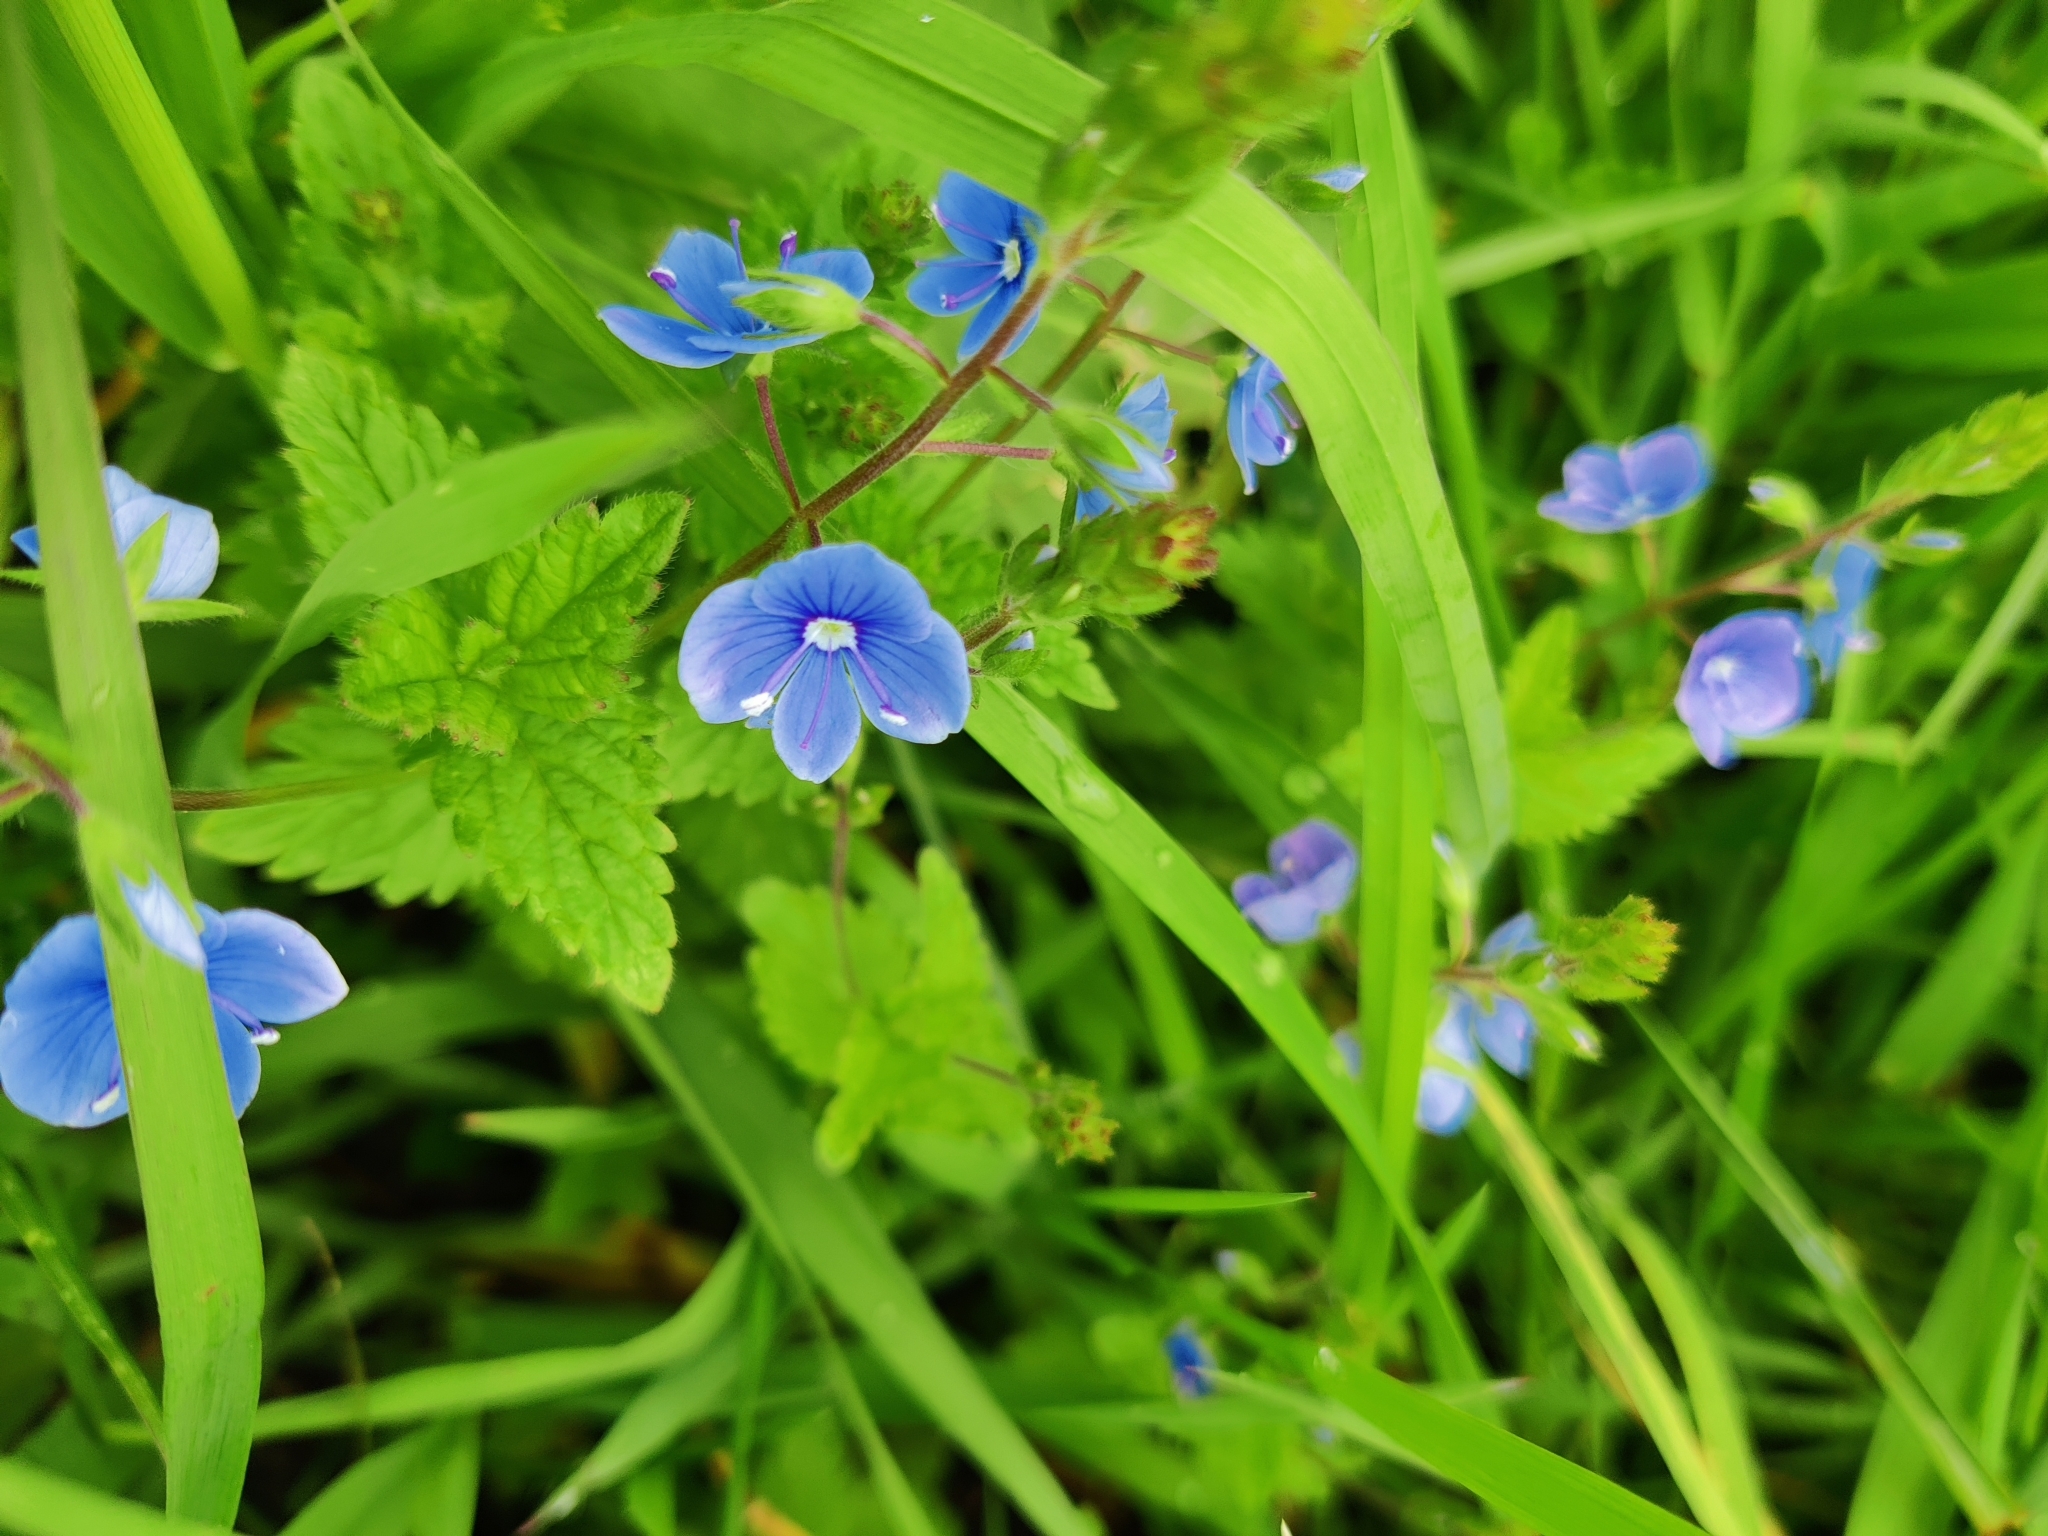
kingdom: Plantae
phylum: Tracheophyta
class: Magnoliopsida
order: Lamiales
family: Plantaginaceae
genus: Veronica
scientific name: Veronica chamaedrys
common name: Germander speedwell
